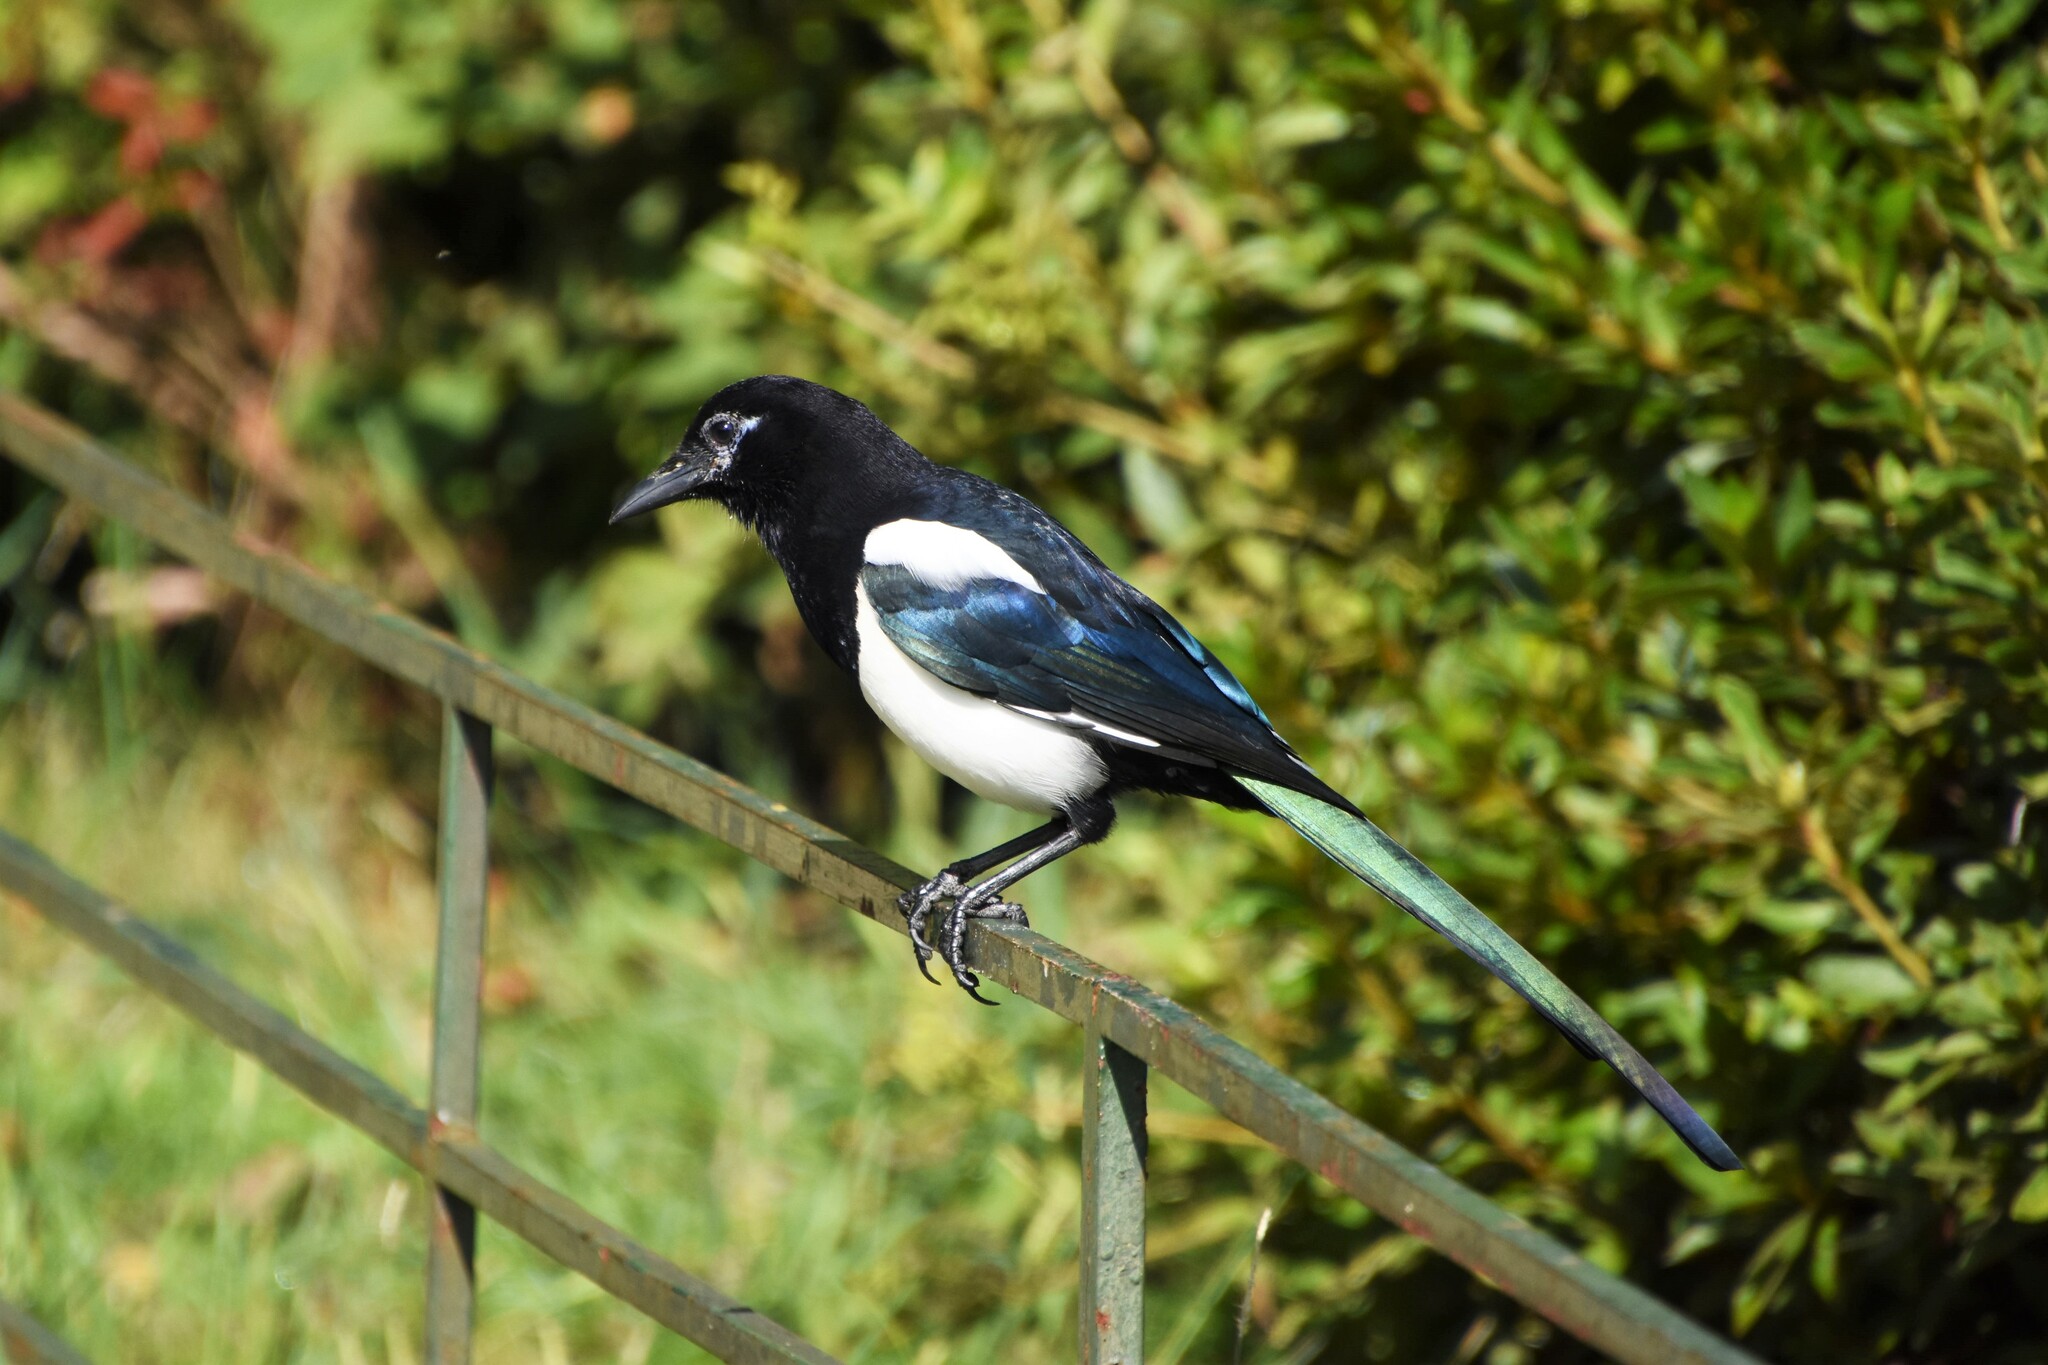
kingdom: Animalia
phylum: Chordata
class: Aves
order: Passeriformes
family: Corvidae
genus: Pica
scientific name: Pica pica
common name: Eurasian magpie
